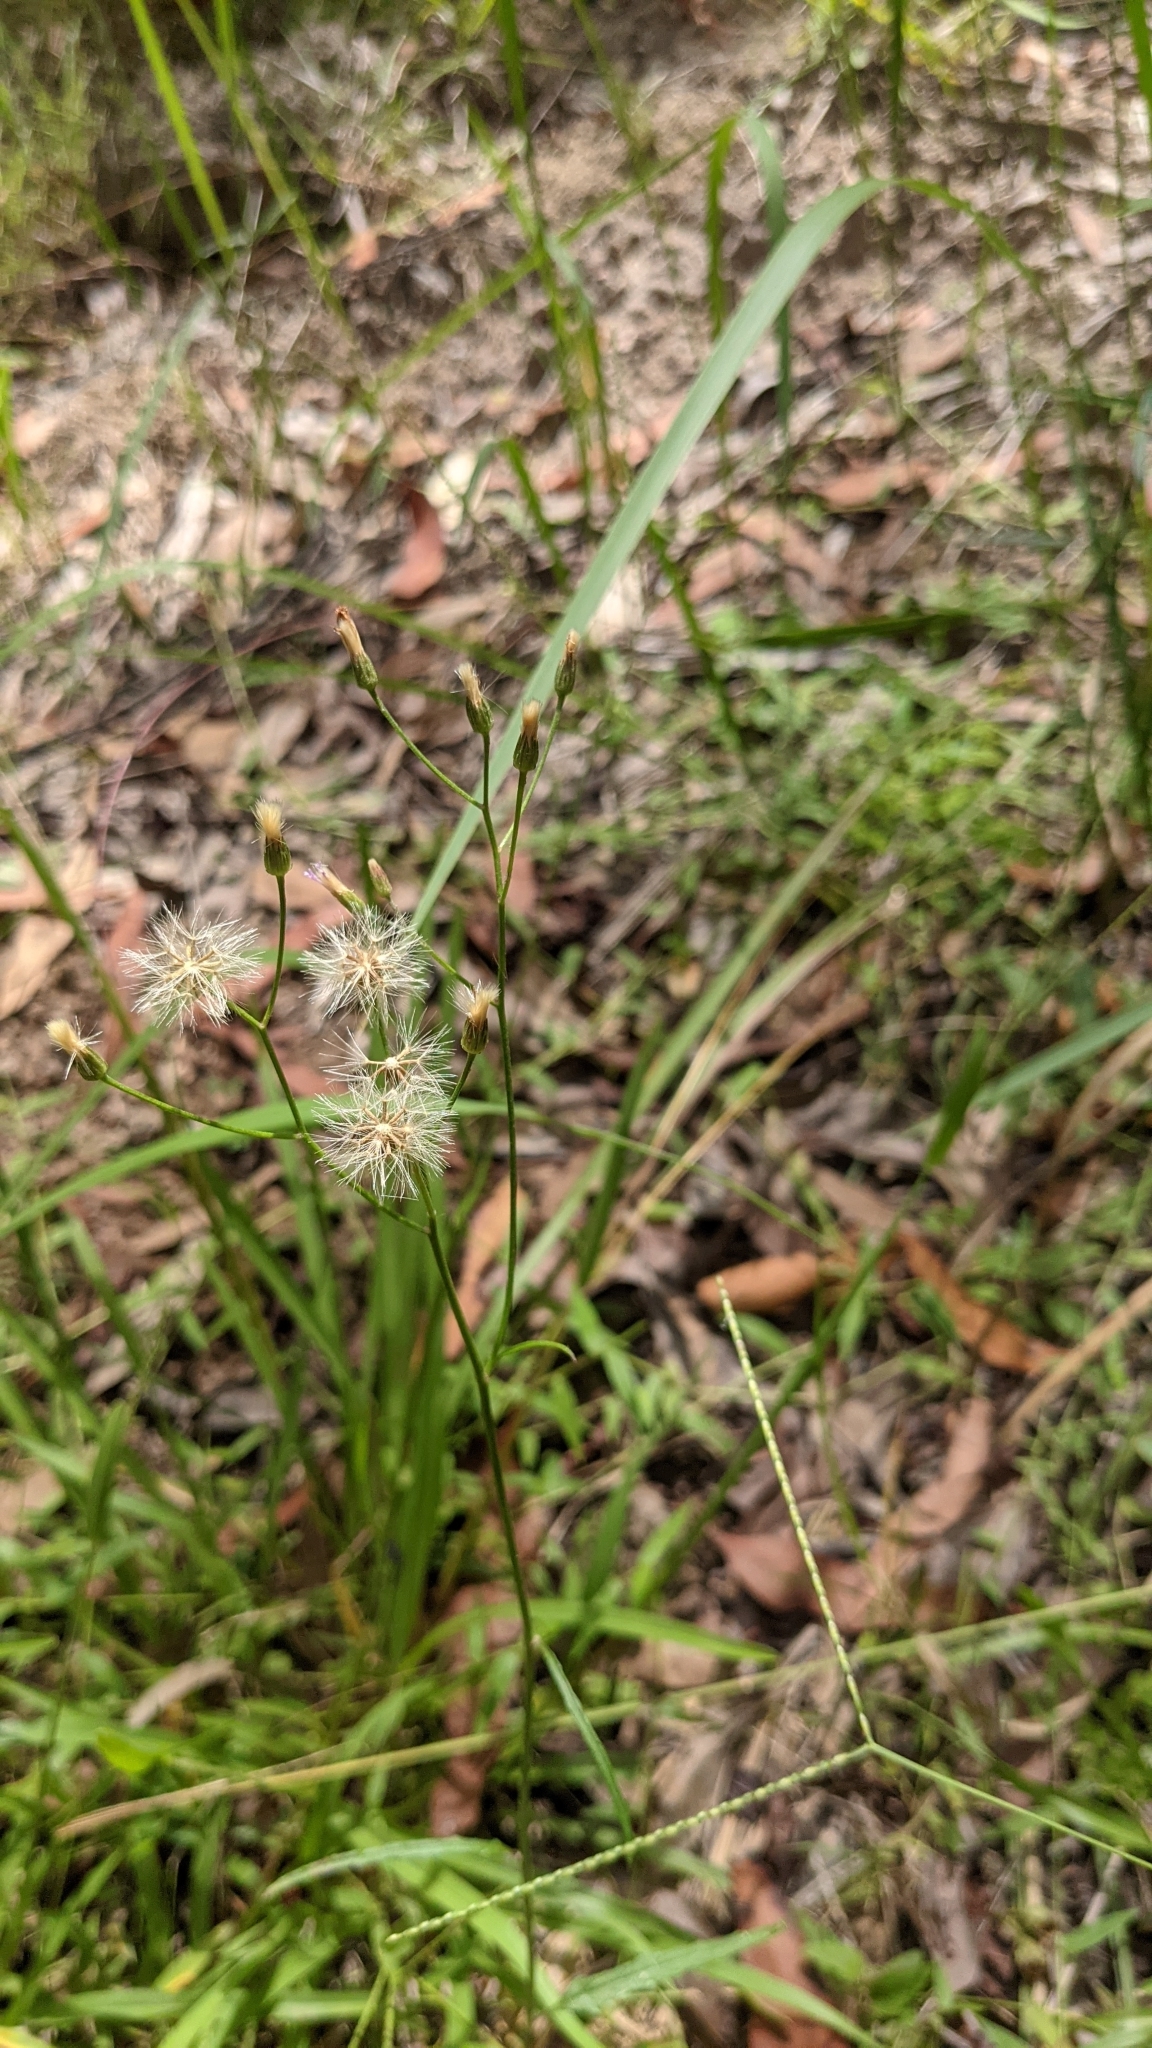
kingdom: Plantae
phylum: Tracheophyta
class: Magnoliopsida
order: Asterales
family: Asteraceae
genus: Cyanthillium
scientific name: Cyanthillium cinereum
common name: Little ironweed
